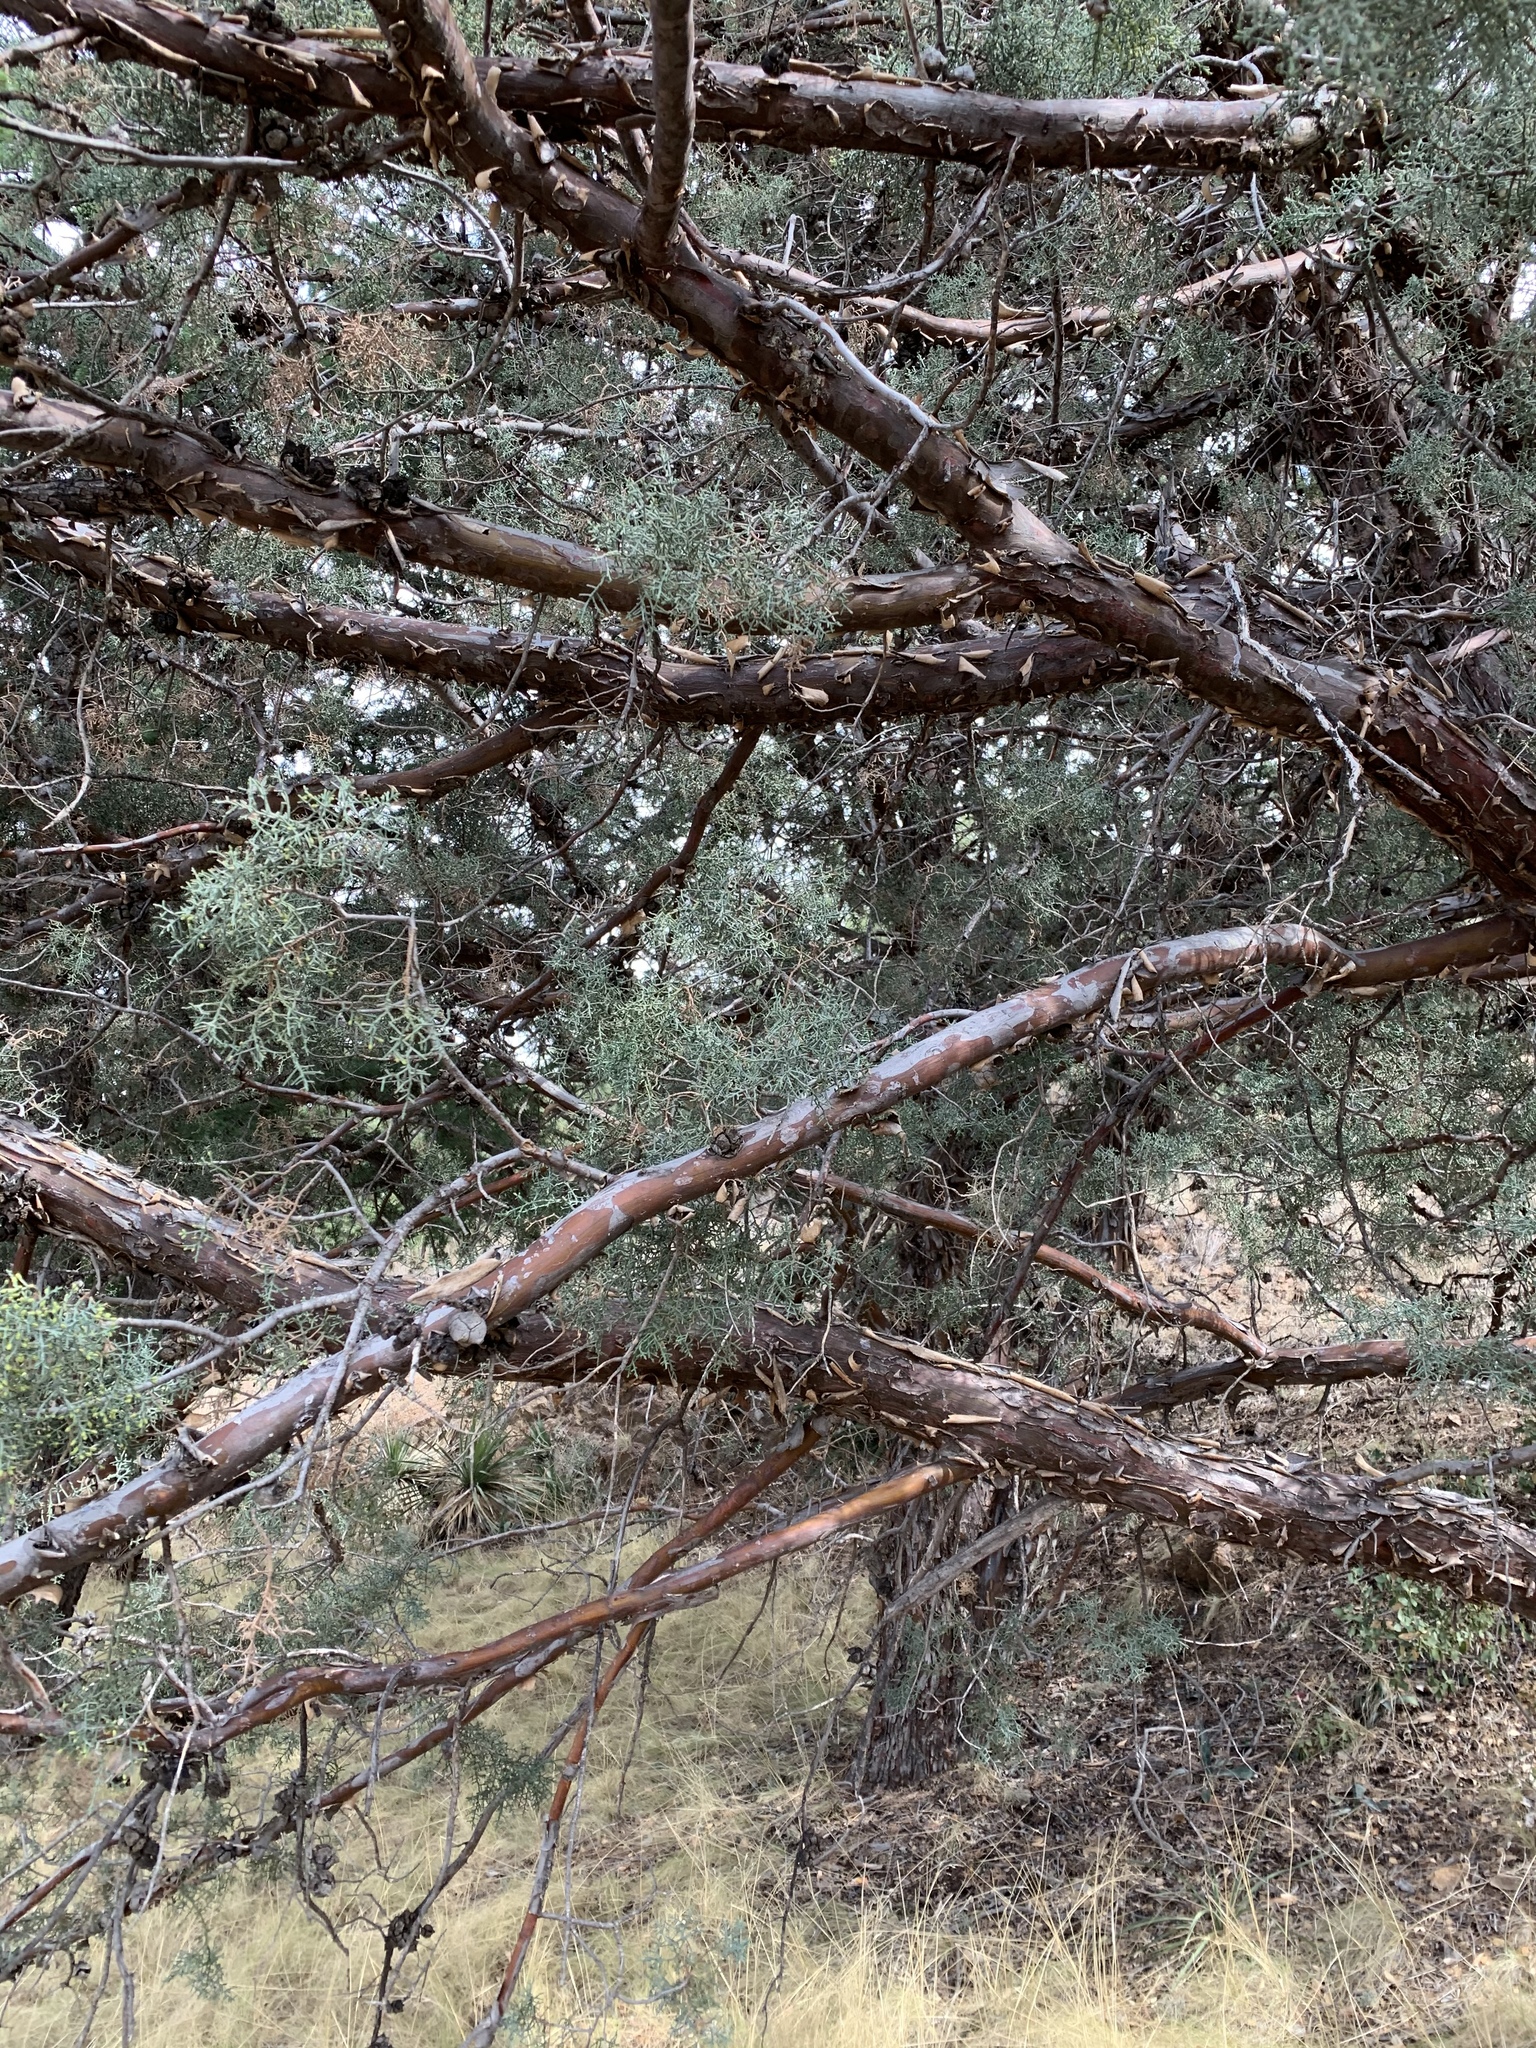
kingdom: Plantae
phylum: Tracheophyta
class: Pinopsida
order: Pinales
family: Cupressaceae
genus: Cupressus
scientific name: Cupressus arizonica
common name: Arizona cypress
